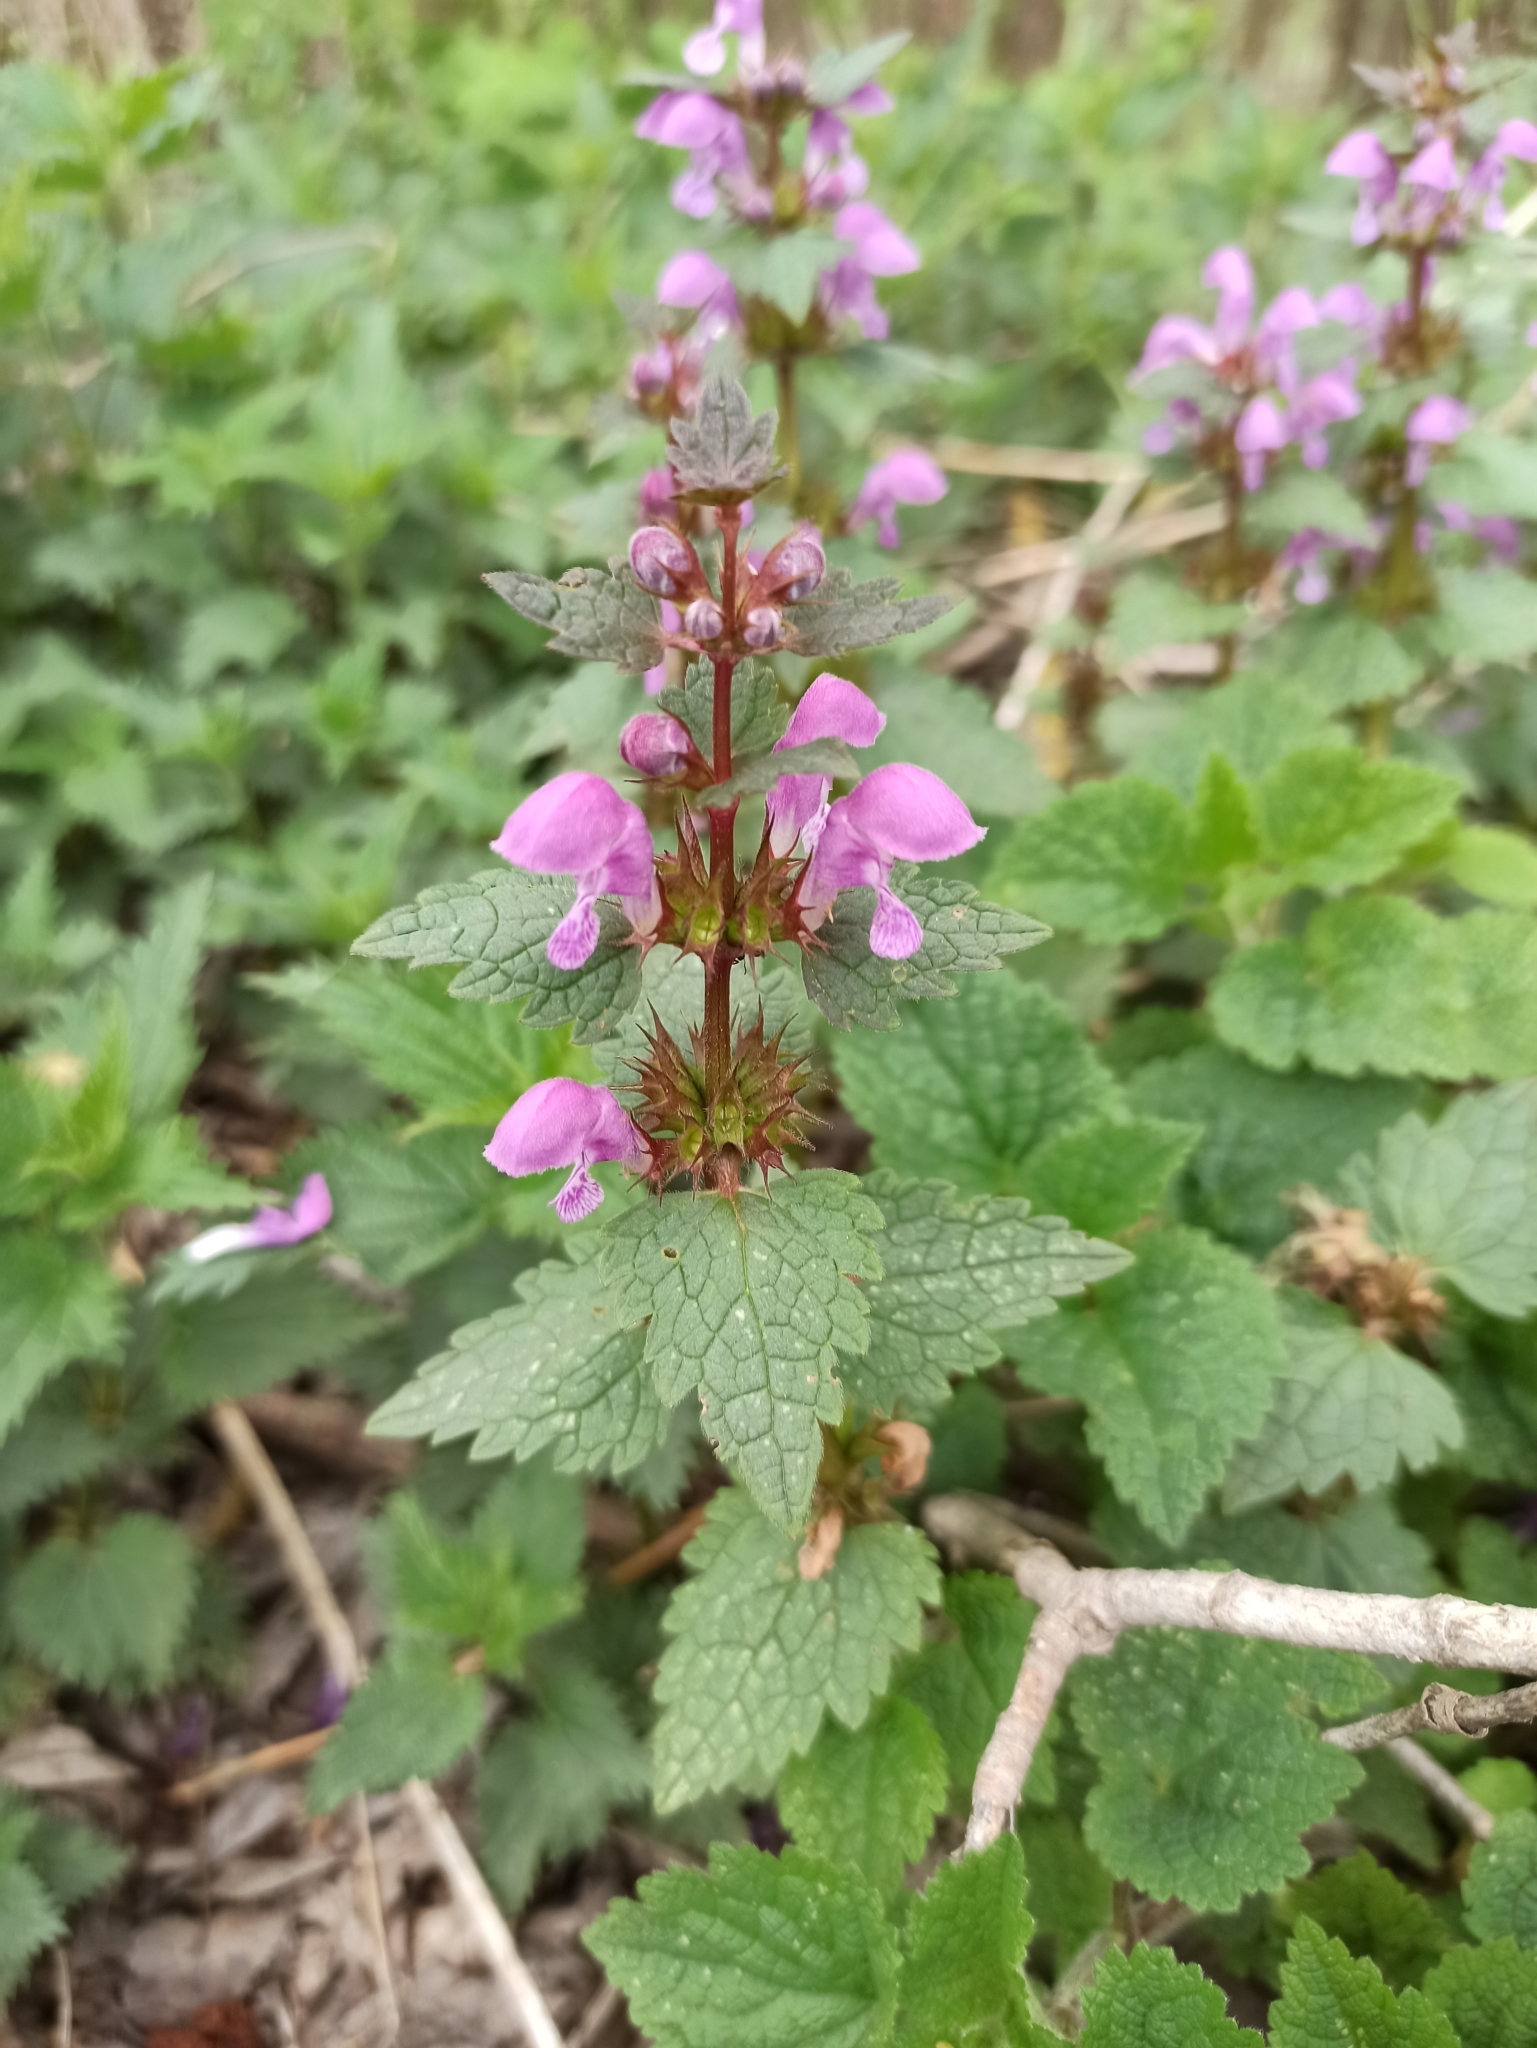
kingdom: Plantae
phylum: Tracheophyta
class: Magnoliopsida
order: Lamiales
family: Lamiaceae
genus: Lamium
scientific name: Lamium maculatum
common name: Spotted dead-nettle
